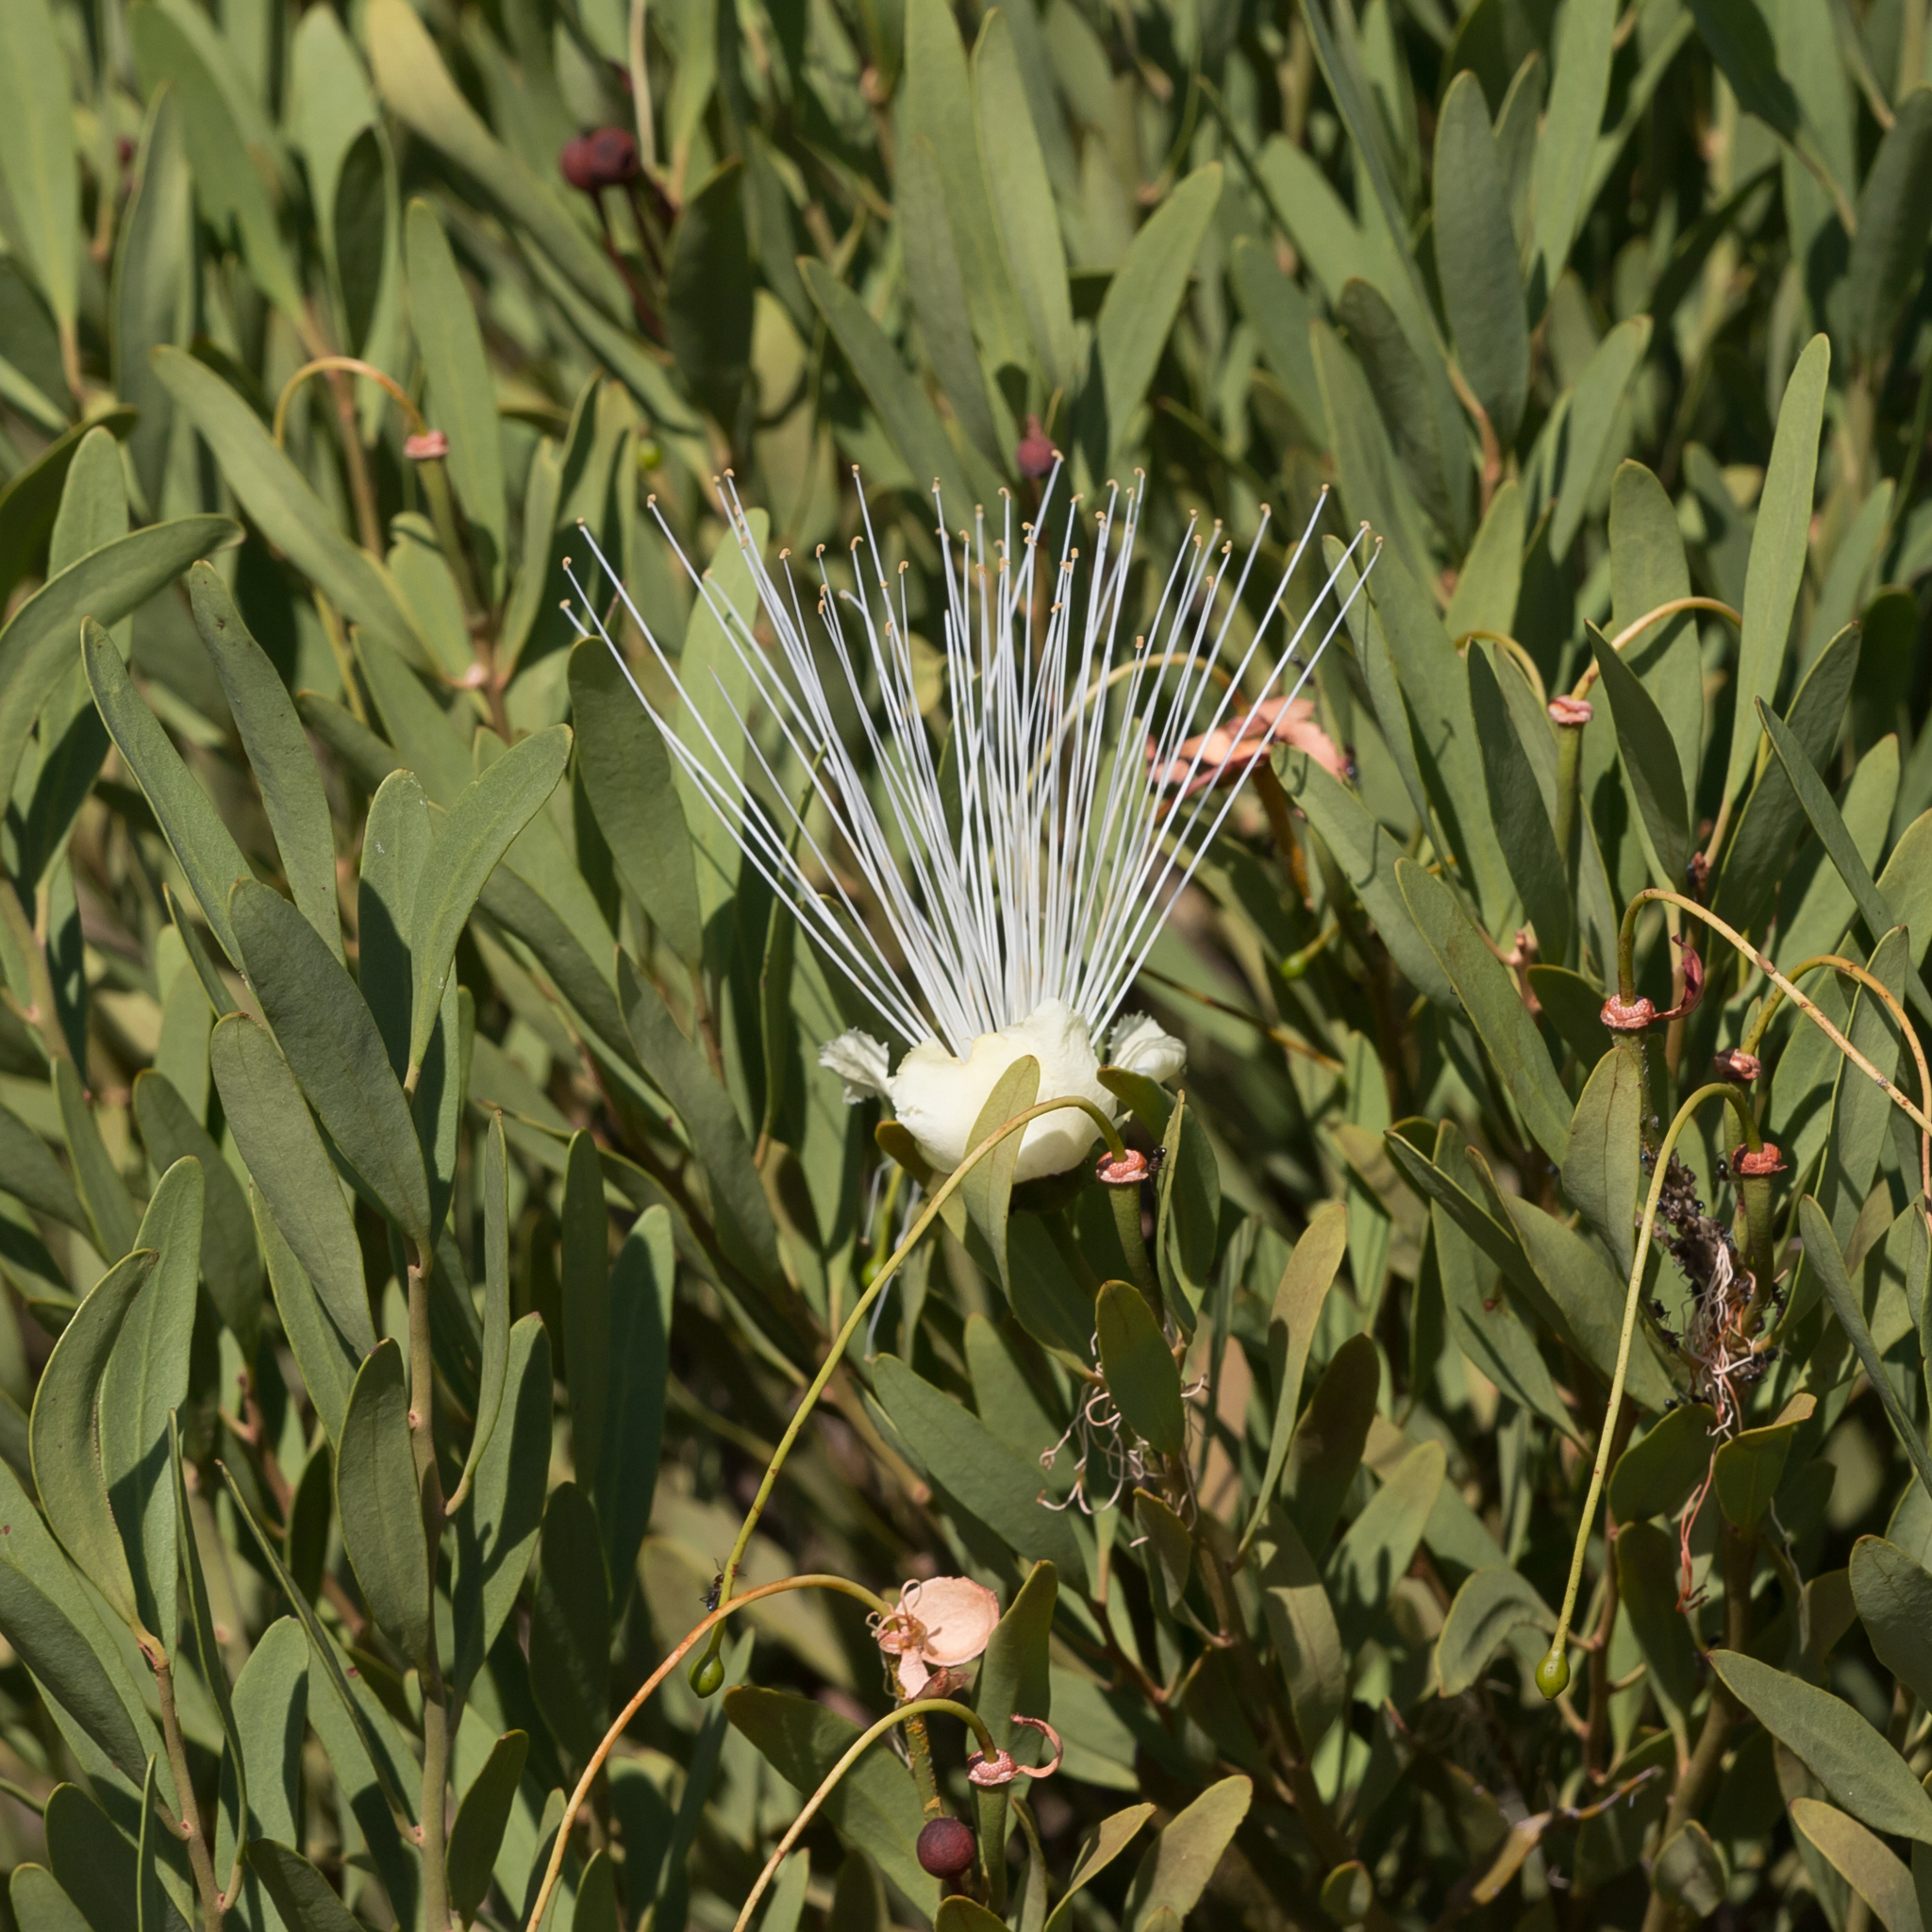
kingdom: Plantae
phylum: Tracheophyta
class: Magnoliopsida
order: Brassicales
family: Capparaceae
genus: Capparis
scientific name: Capparis loranthifolia
